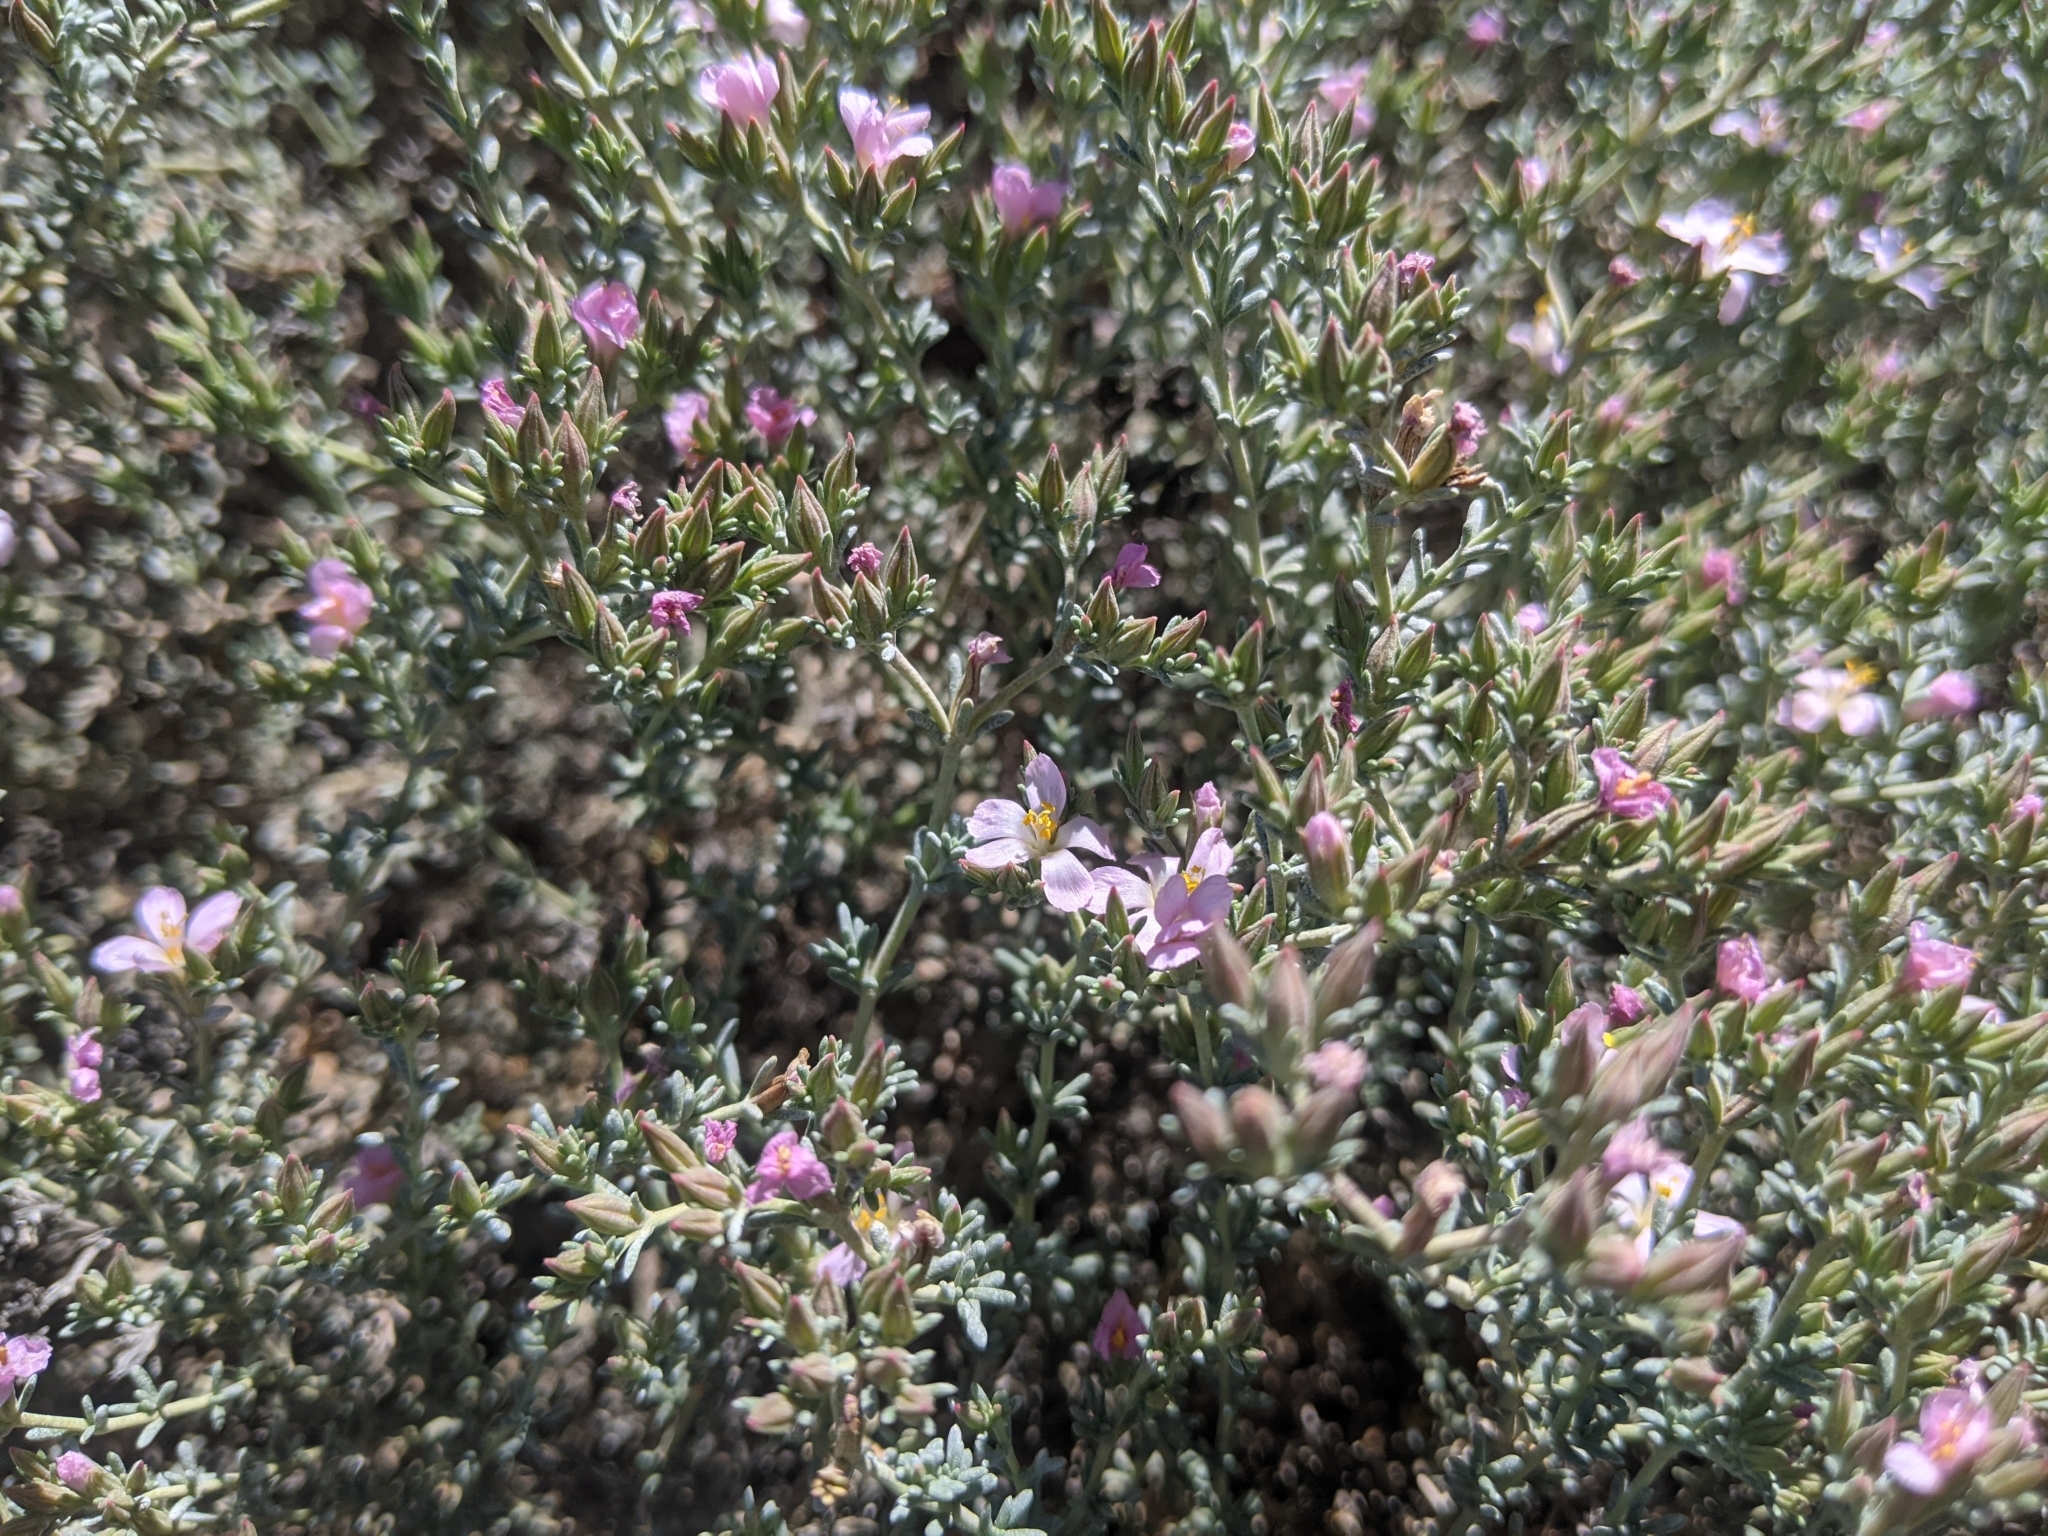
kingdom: Plantae
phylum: Tracheophyta
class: Magnoliopsida
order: Caryophyllales
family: Frankeniaceae
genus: Frankenia
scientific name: Frankenia sessilis
